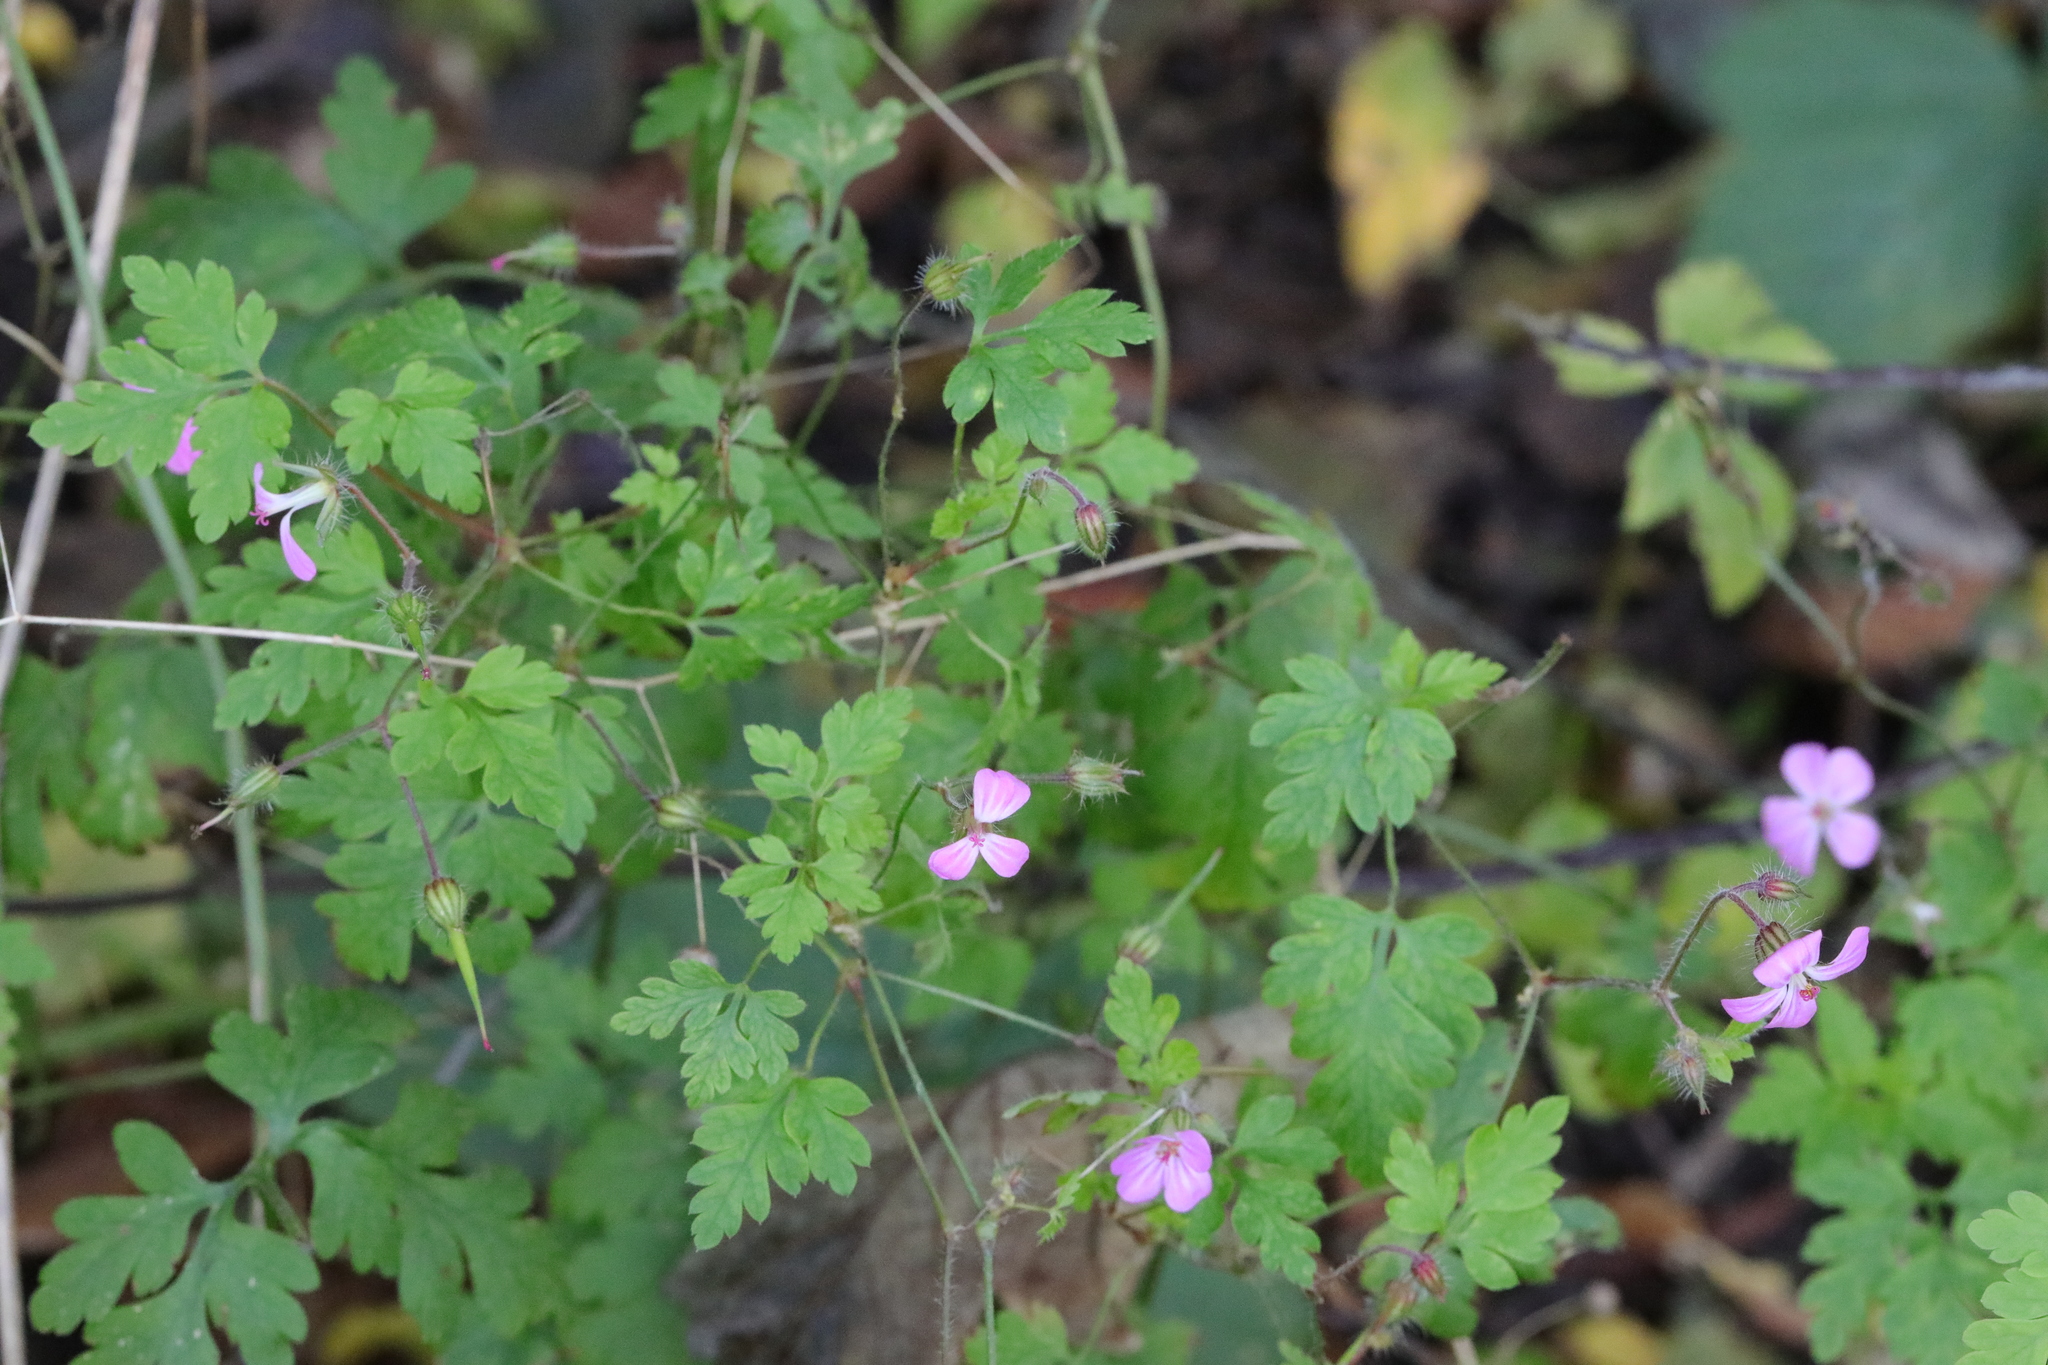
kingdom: Plantae
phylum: Tracheophyta
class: Magnoliopsida
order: Geraniales
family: Geraniaceae
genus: Geranium
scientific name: Geranium robertianum
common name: Herb-robert
